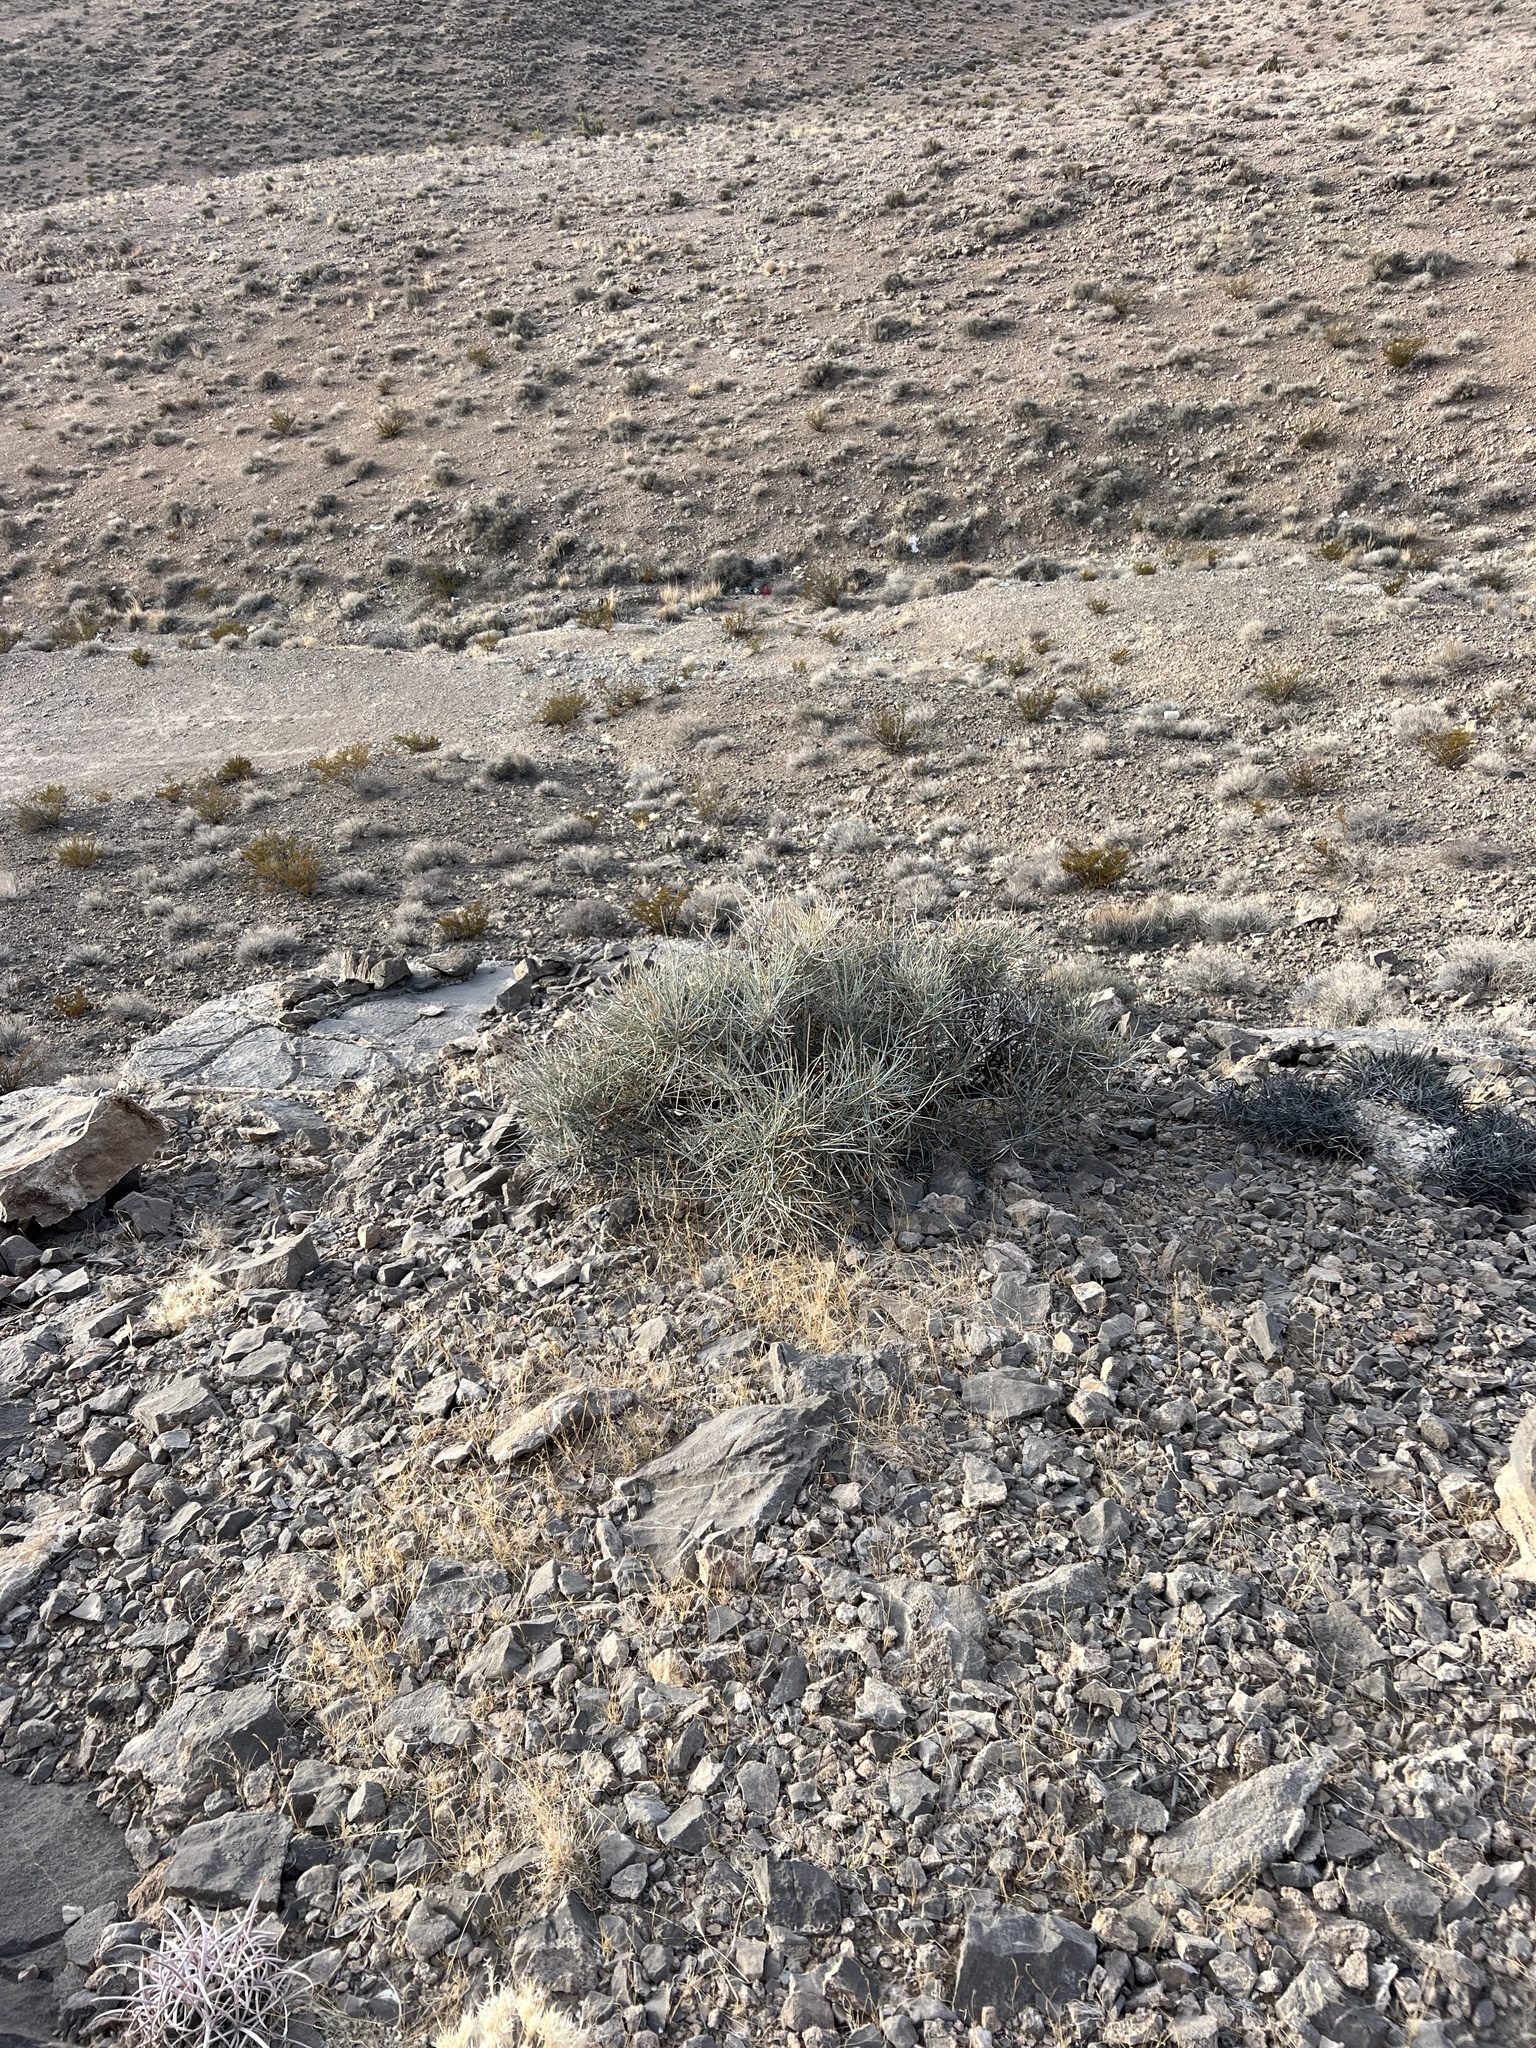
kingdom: Plantae
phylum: Tracheophyta
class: Gnetopsida
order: Ephedrales
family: Ephedraceae
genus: Ephedra
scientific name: Ephedra nevadensis
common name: Gray ephedra
